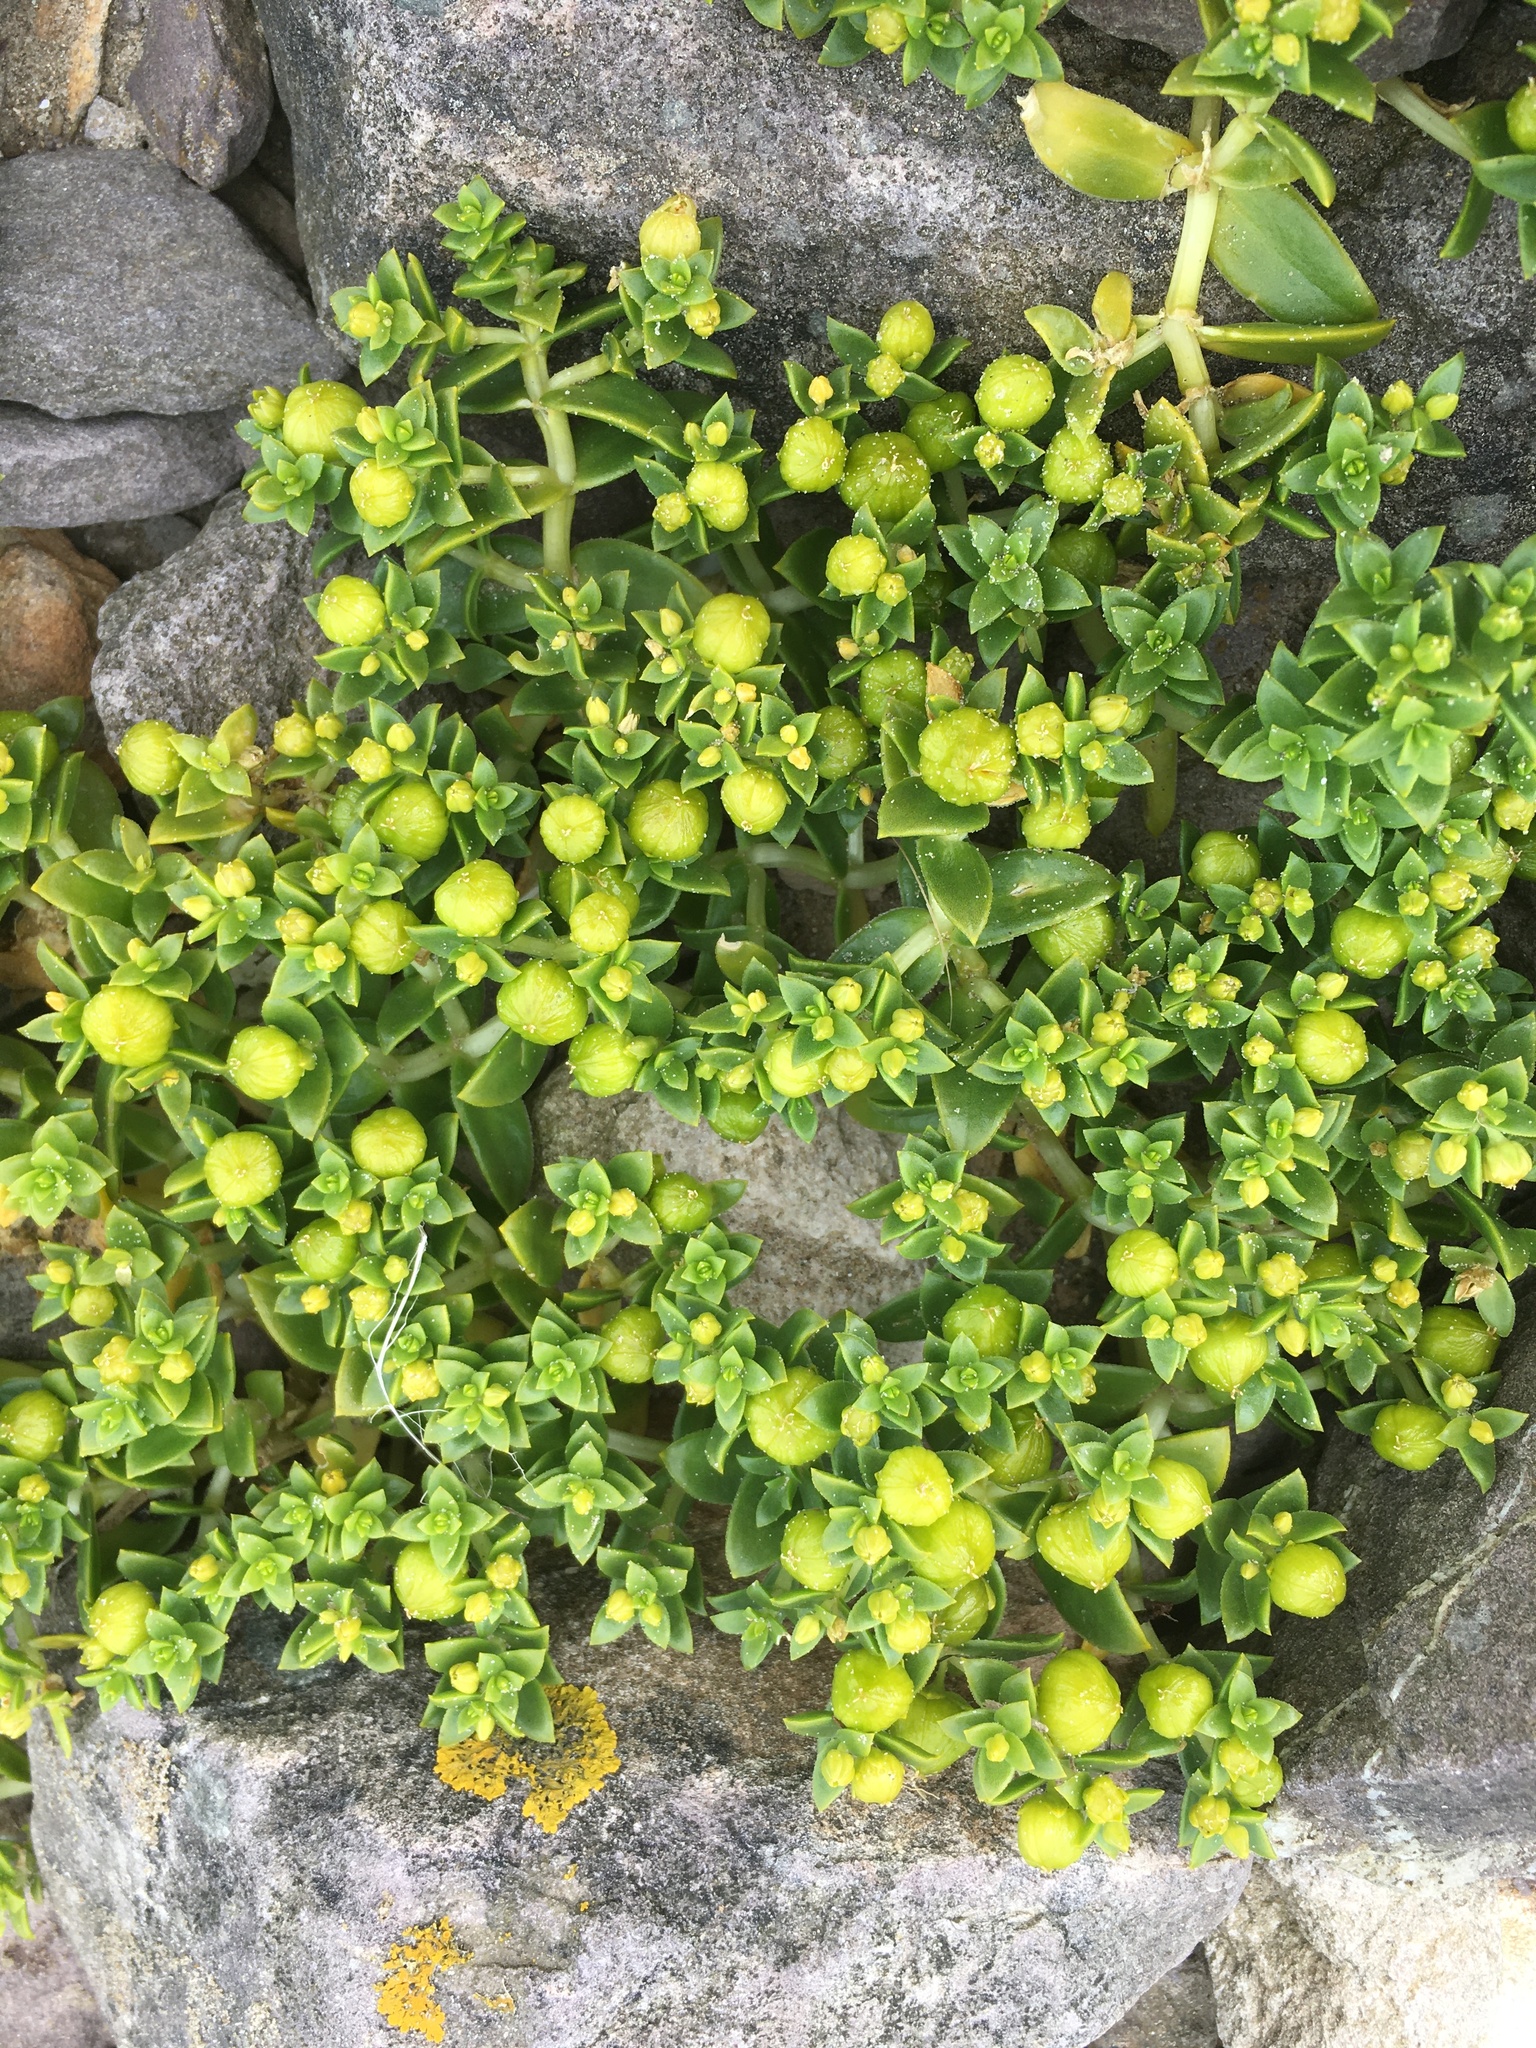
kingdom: Plantae
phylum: Tracheophyta
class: Magnoliopsida
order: Caryophyllales
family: Caryophyllaceae
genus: Honckenya
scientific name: Honckenya peploides
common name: Sea sandwort
